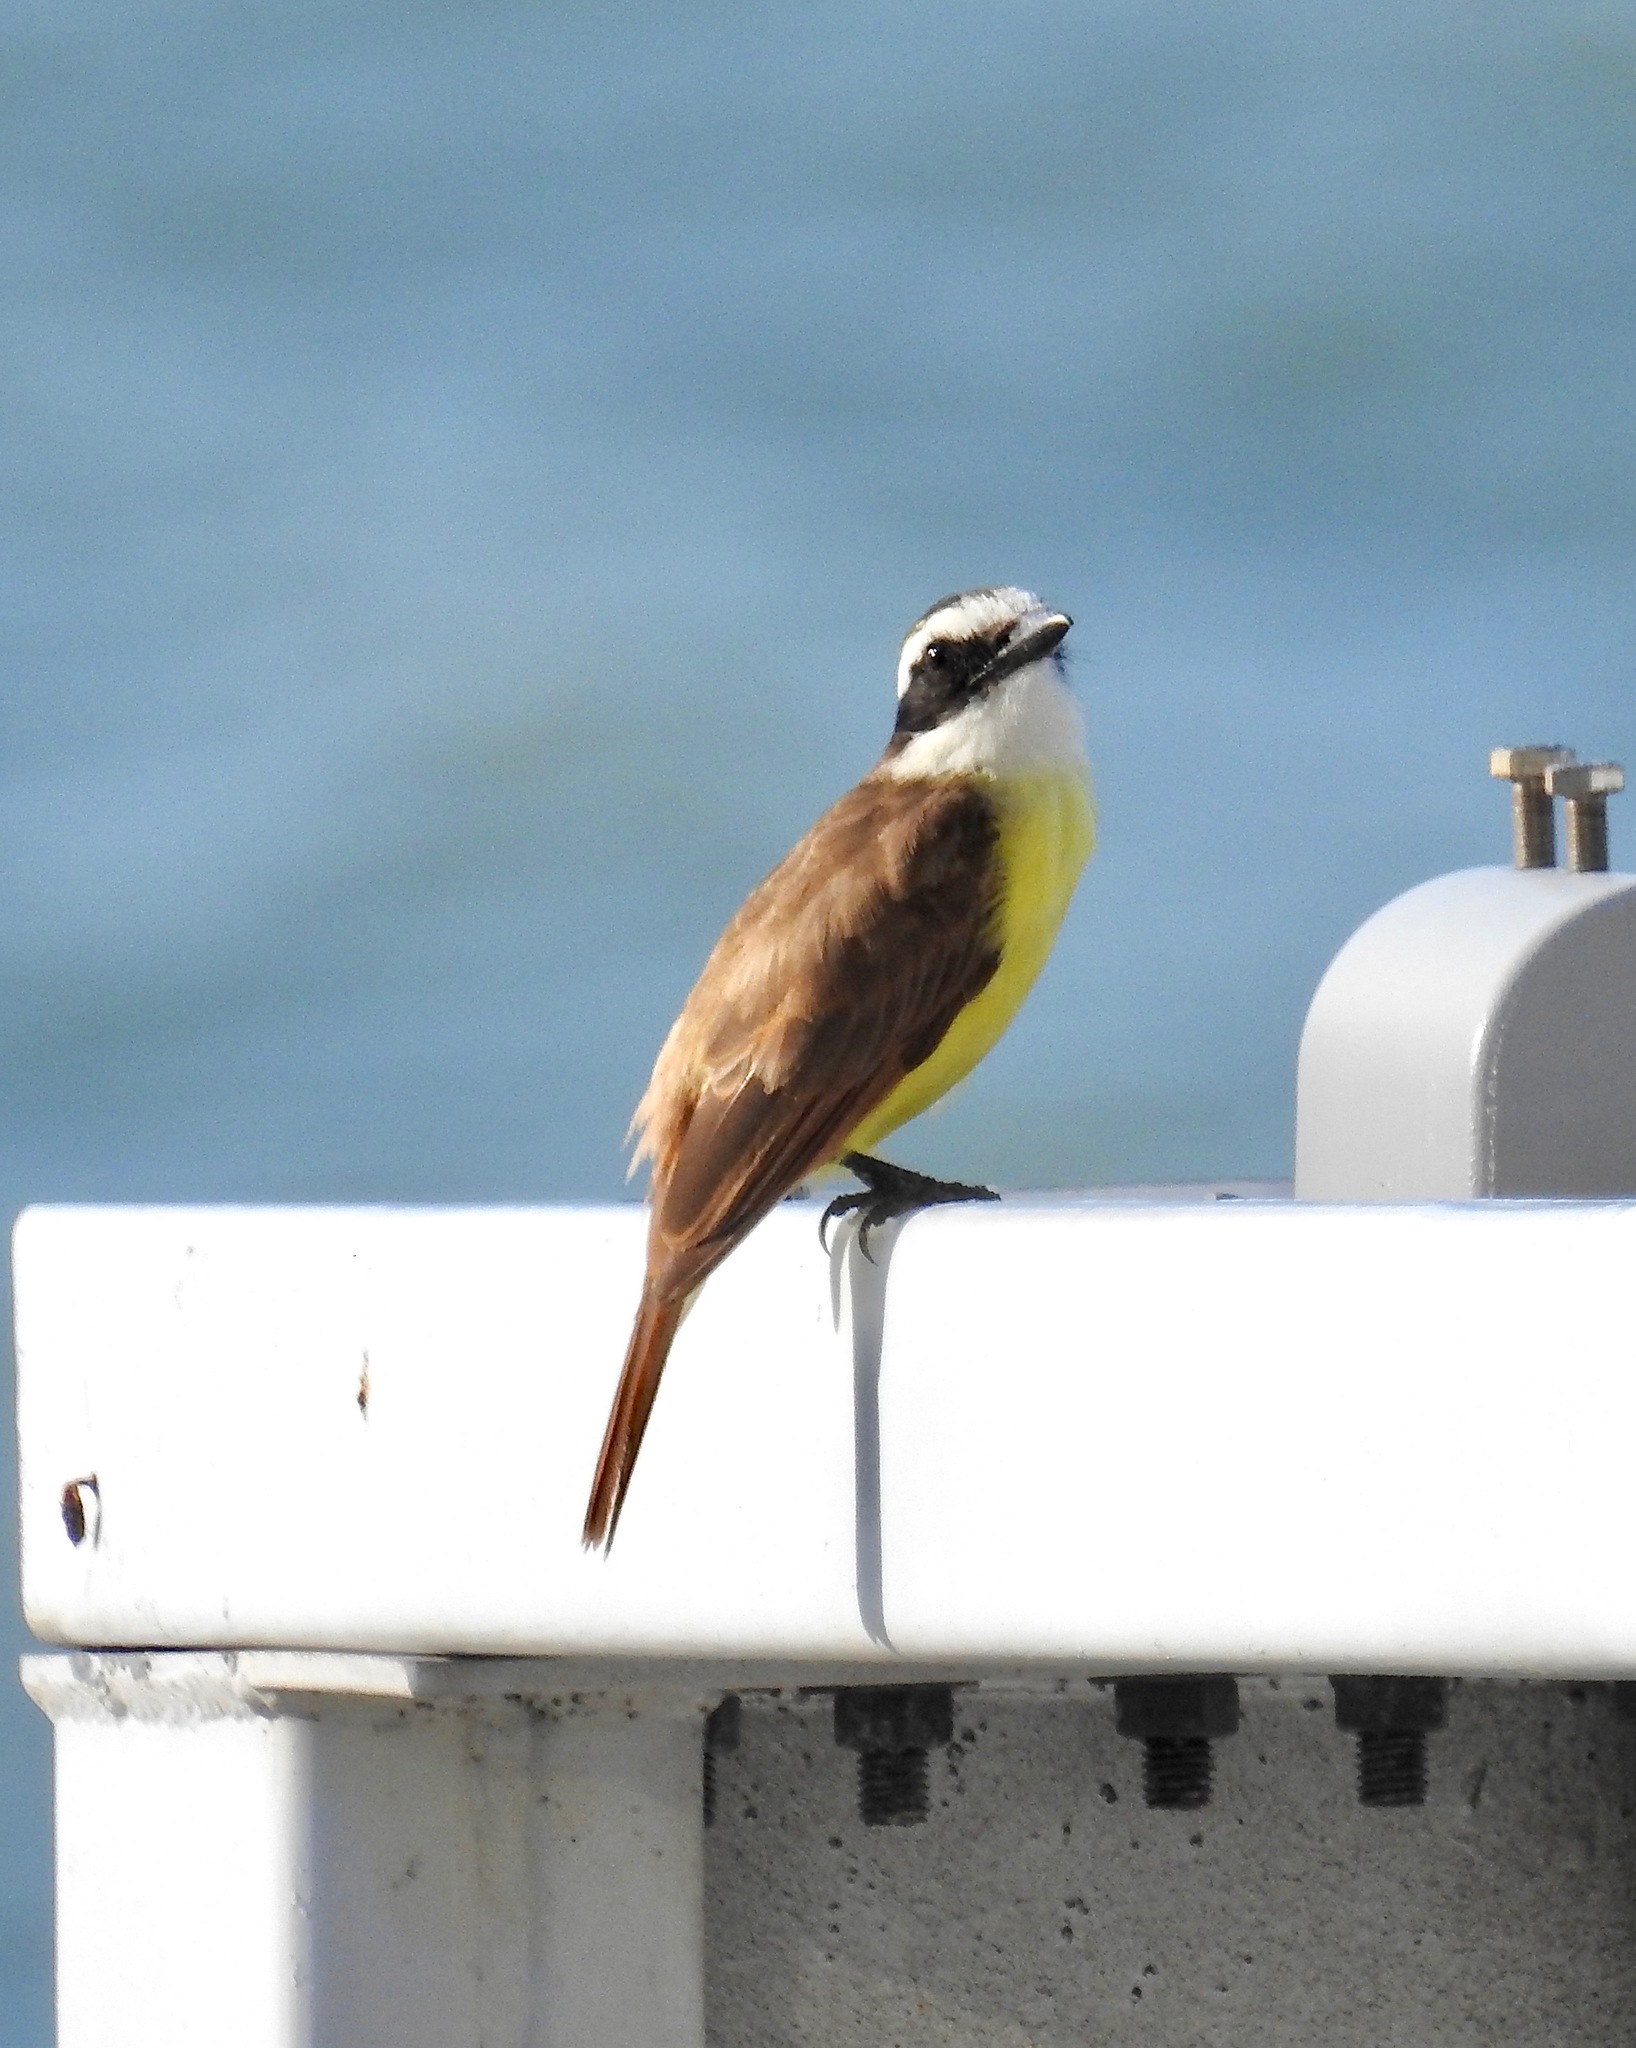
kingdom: Animalia
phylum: Chordata
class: Aves
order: Passeriformes
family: Tyrannidae
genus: Pitangus
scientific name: Pitangus sulphuratus
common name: Great kiskadee
